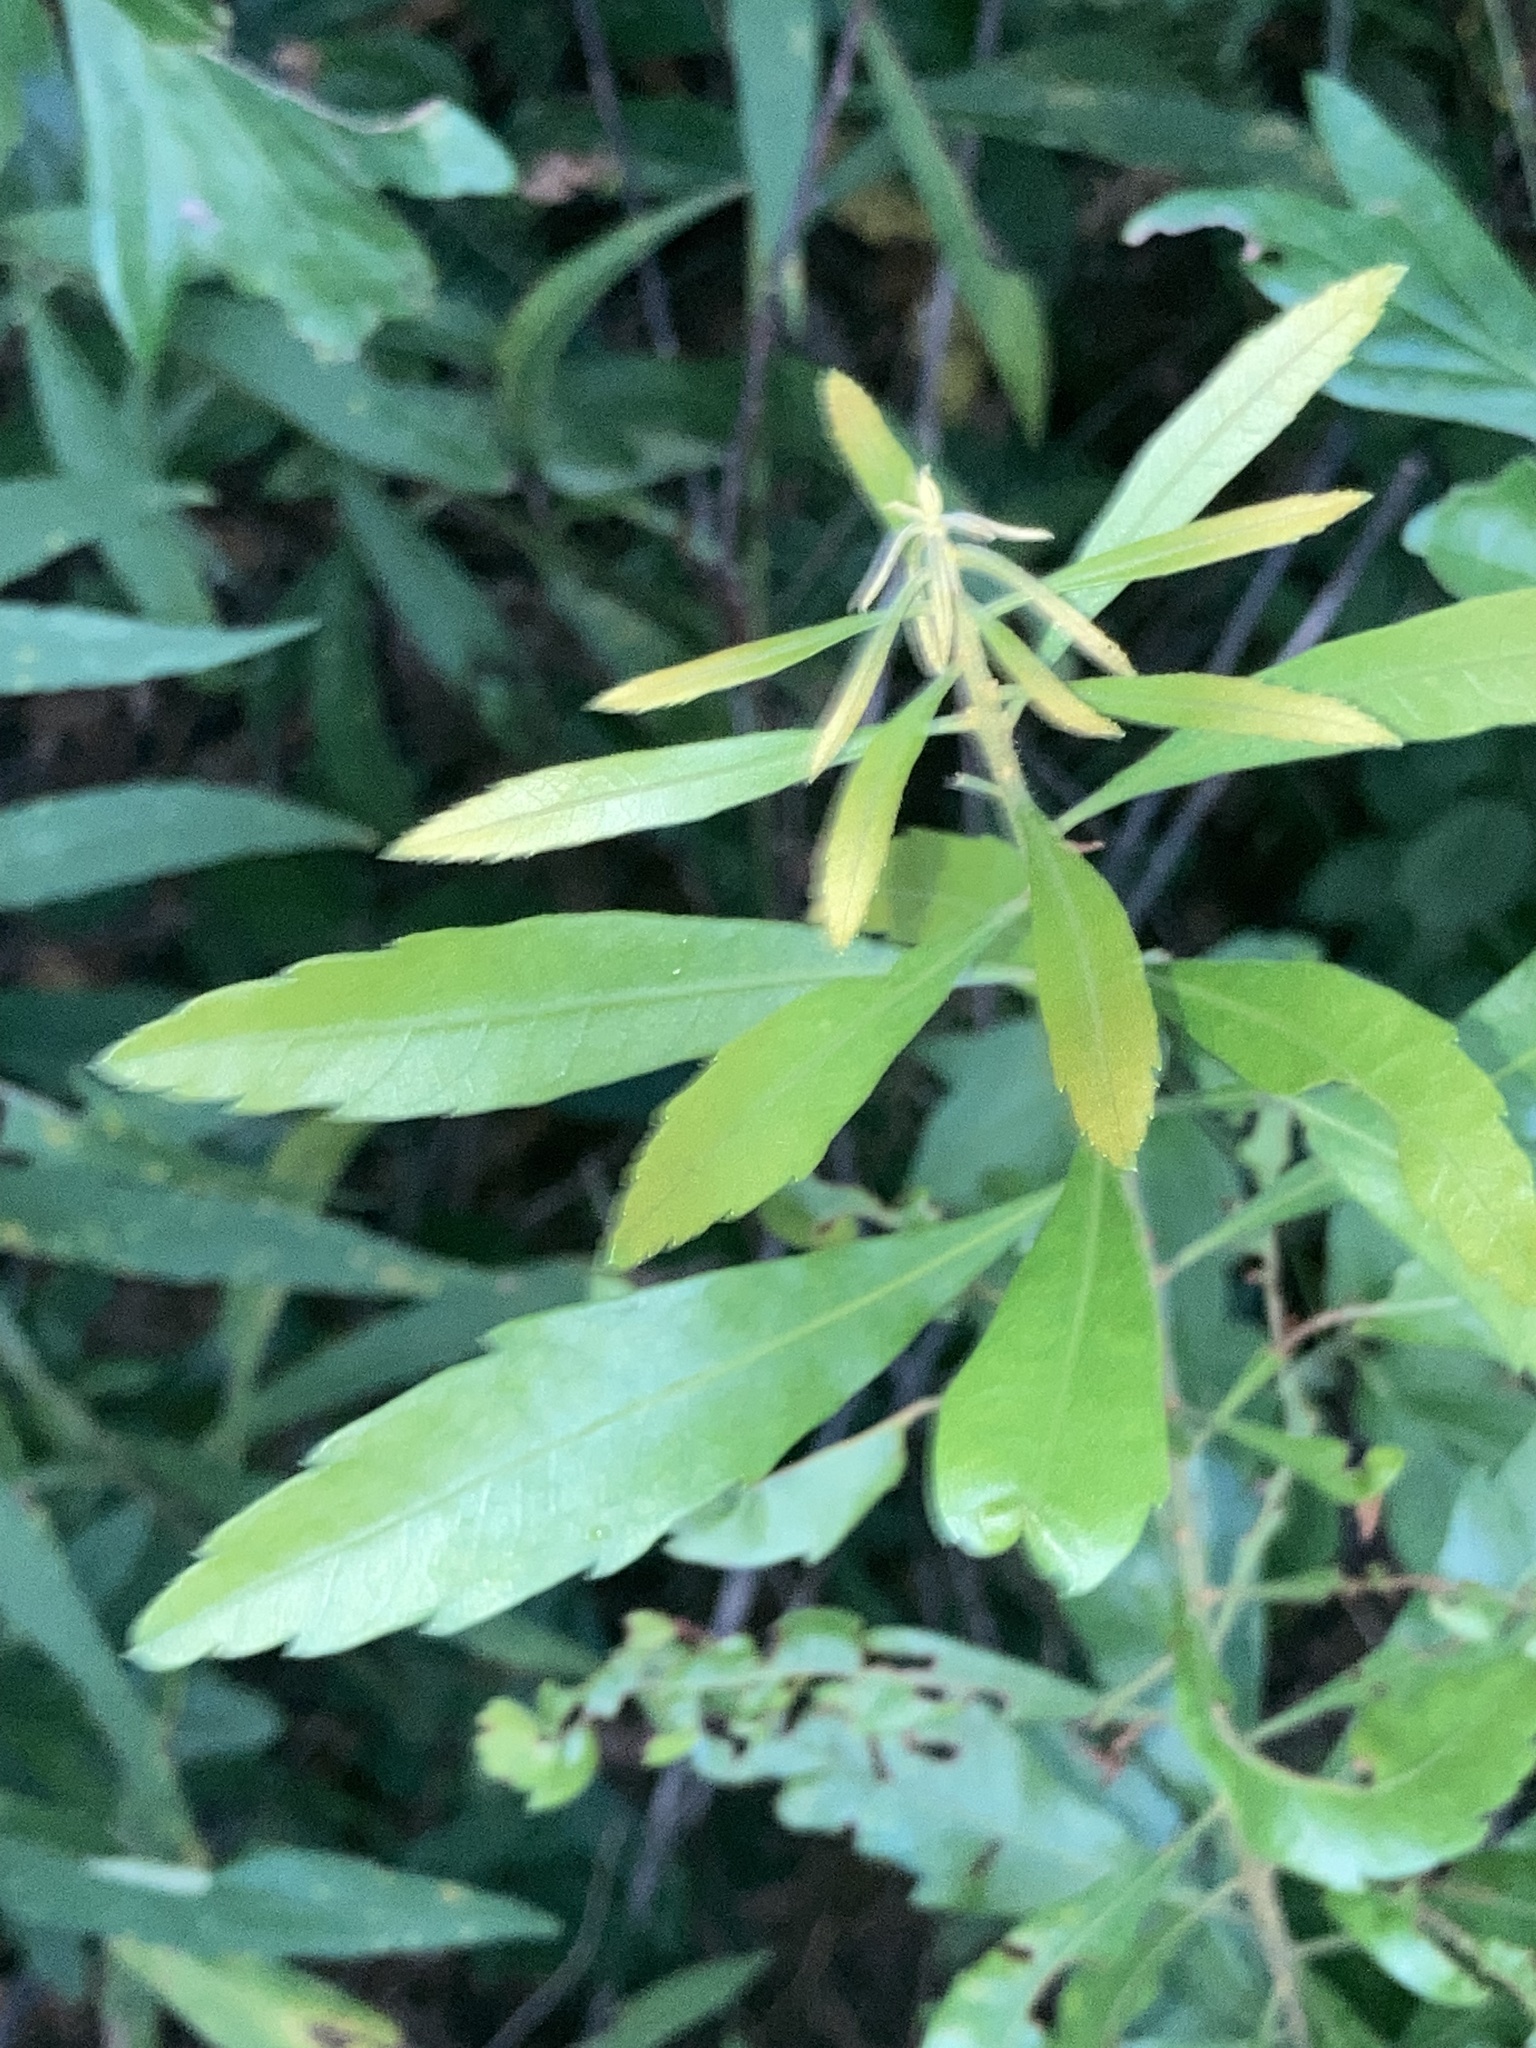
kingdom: Plantae
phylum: Tracheophyta
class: Magnoliopsida
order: Fagales
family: Myricaceae
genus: Morella
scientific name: Morella cerifera
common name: Wax myrtle
